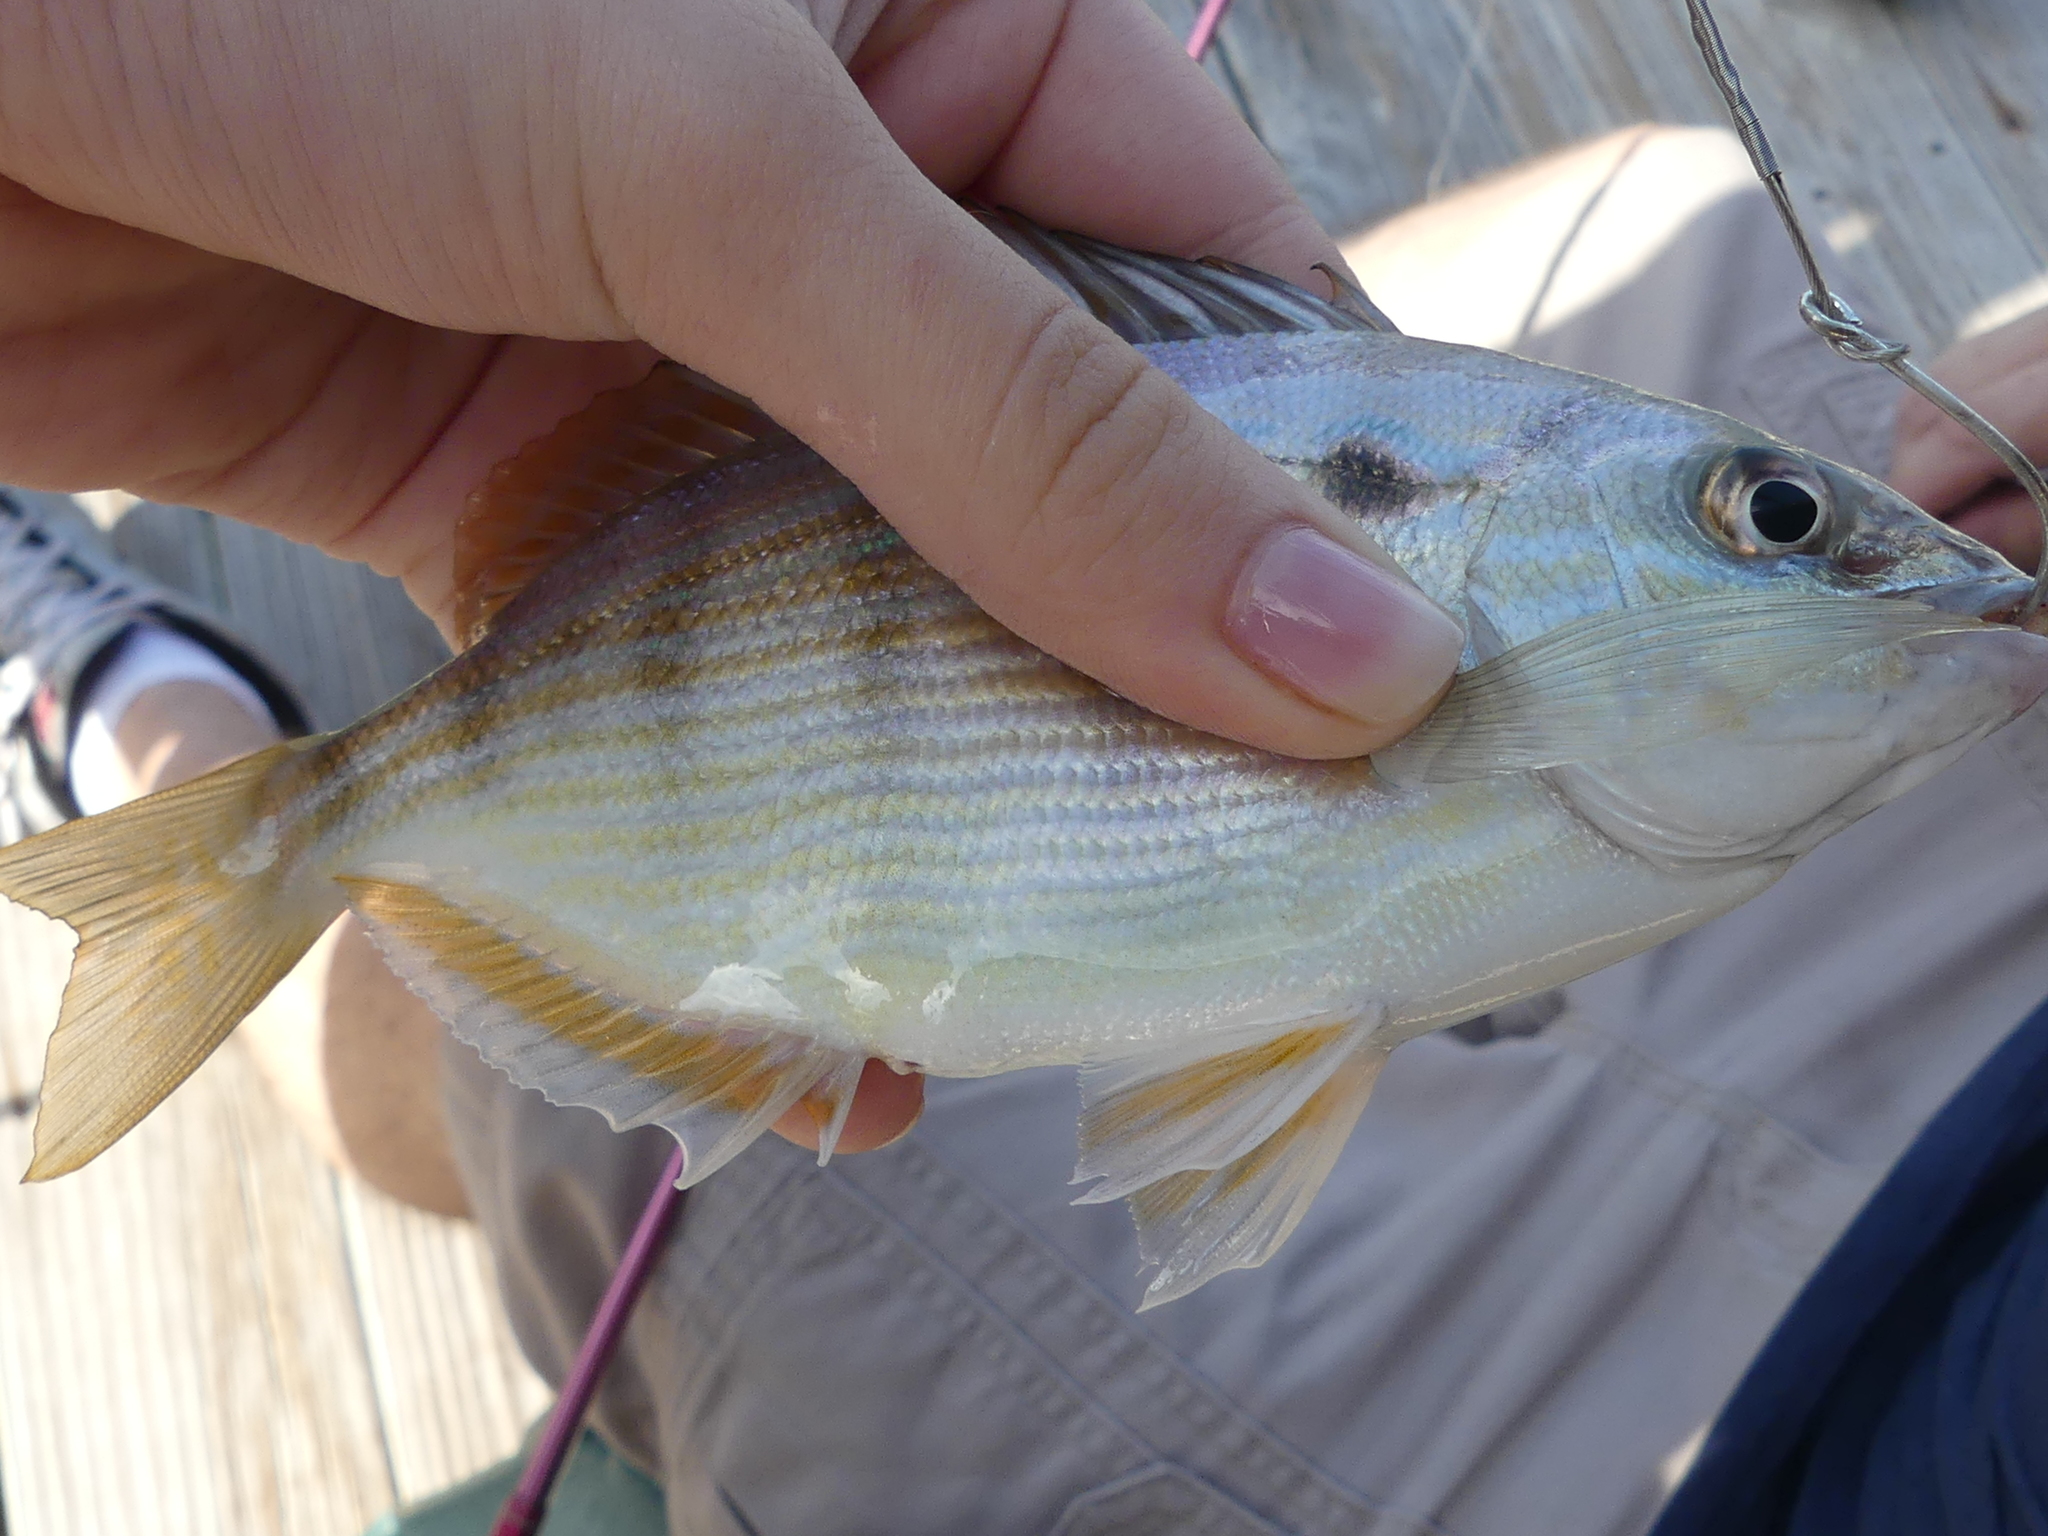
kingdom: Animalia
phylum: Chordata
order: Perciformes
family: Sparidae
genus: Lagodon
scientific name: Lagodon rhomboides
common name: Pinfish
